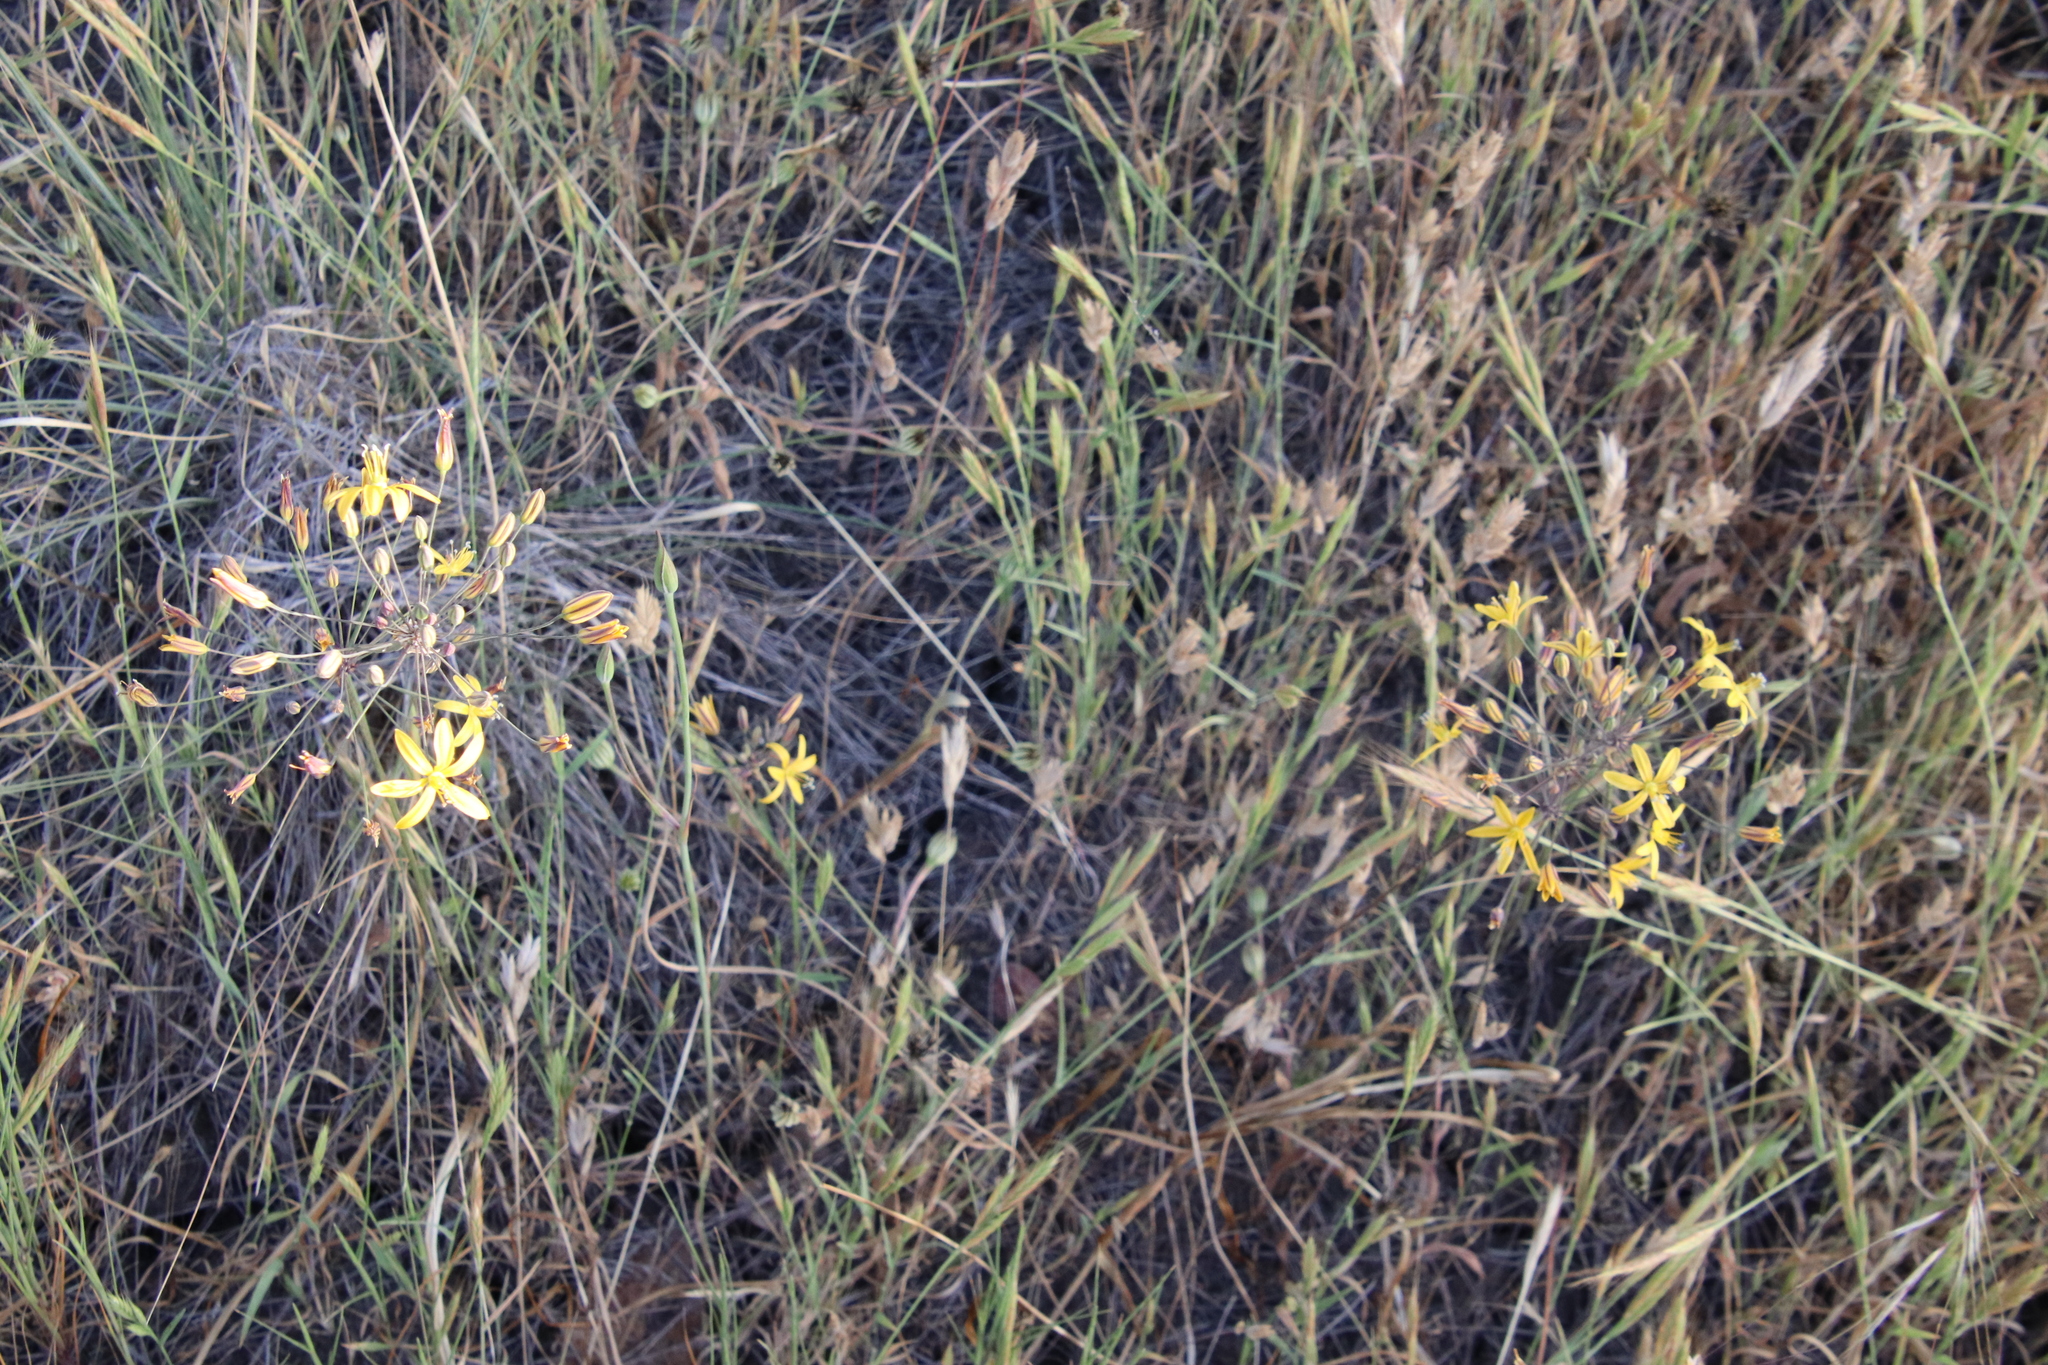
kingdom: Plantae
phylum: Tracheophyta
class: Liliopsida
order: Asparagales
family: Asparagaceae
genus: Bloomeria
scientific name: Bloomeria crocea
